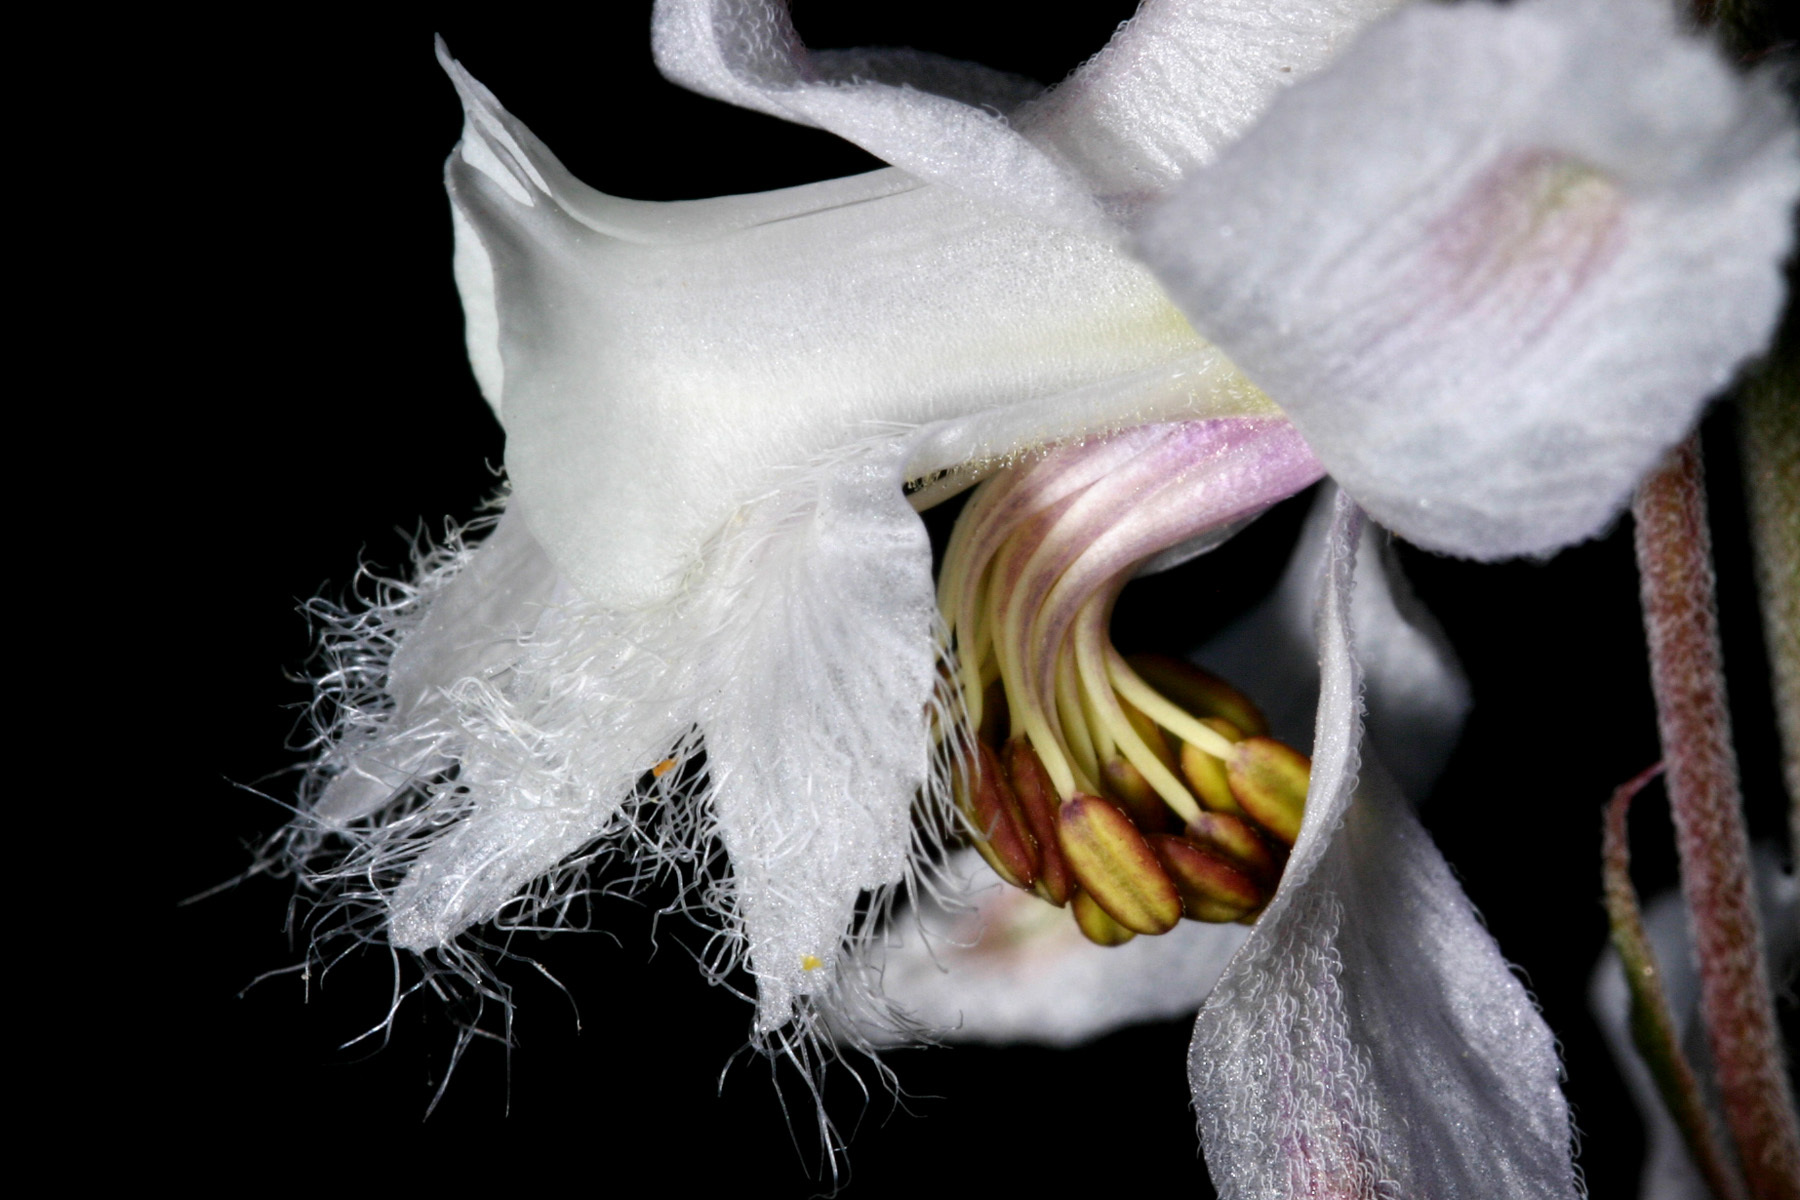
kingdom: Plantae
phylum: Tracheophyta
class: Magnoliopsida
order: Ranunculales
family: Ranunculaceae
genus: Delphinium
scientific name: Delphinium wootonii
